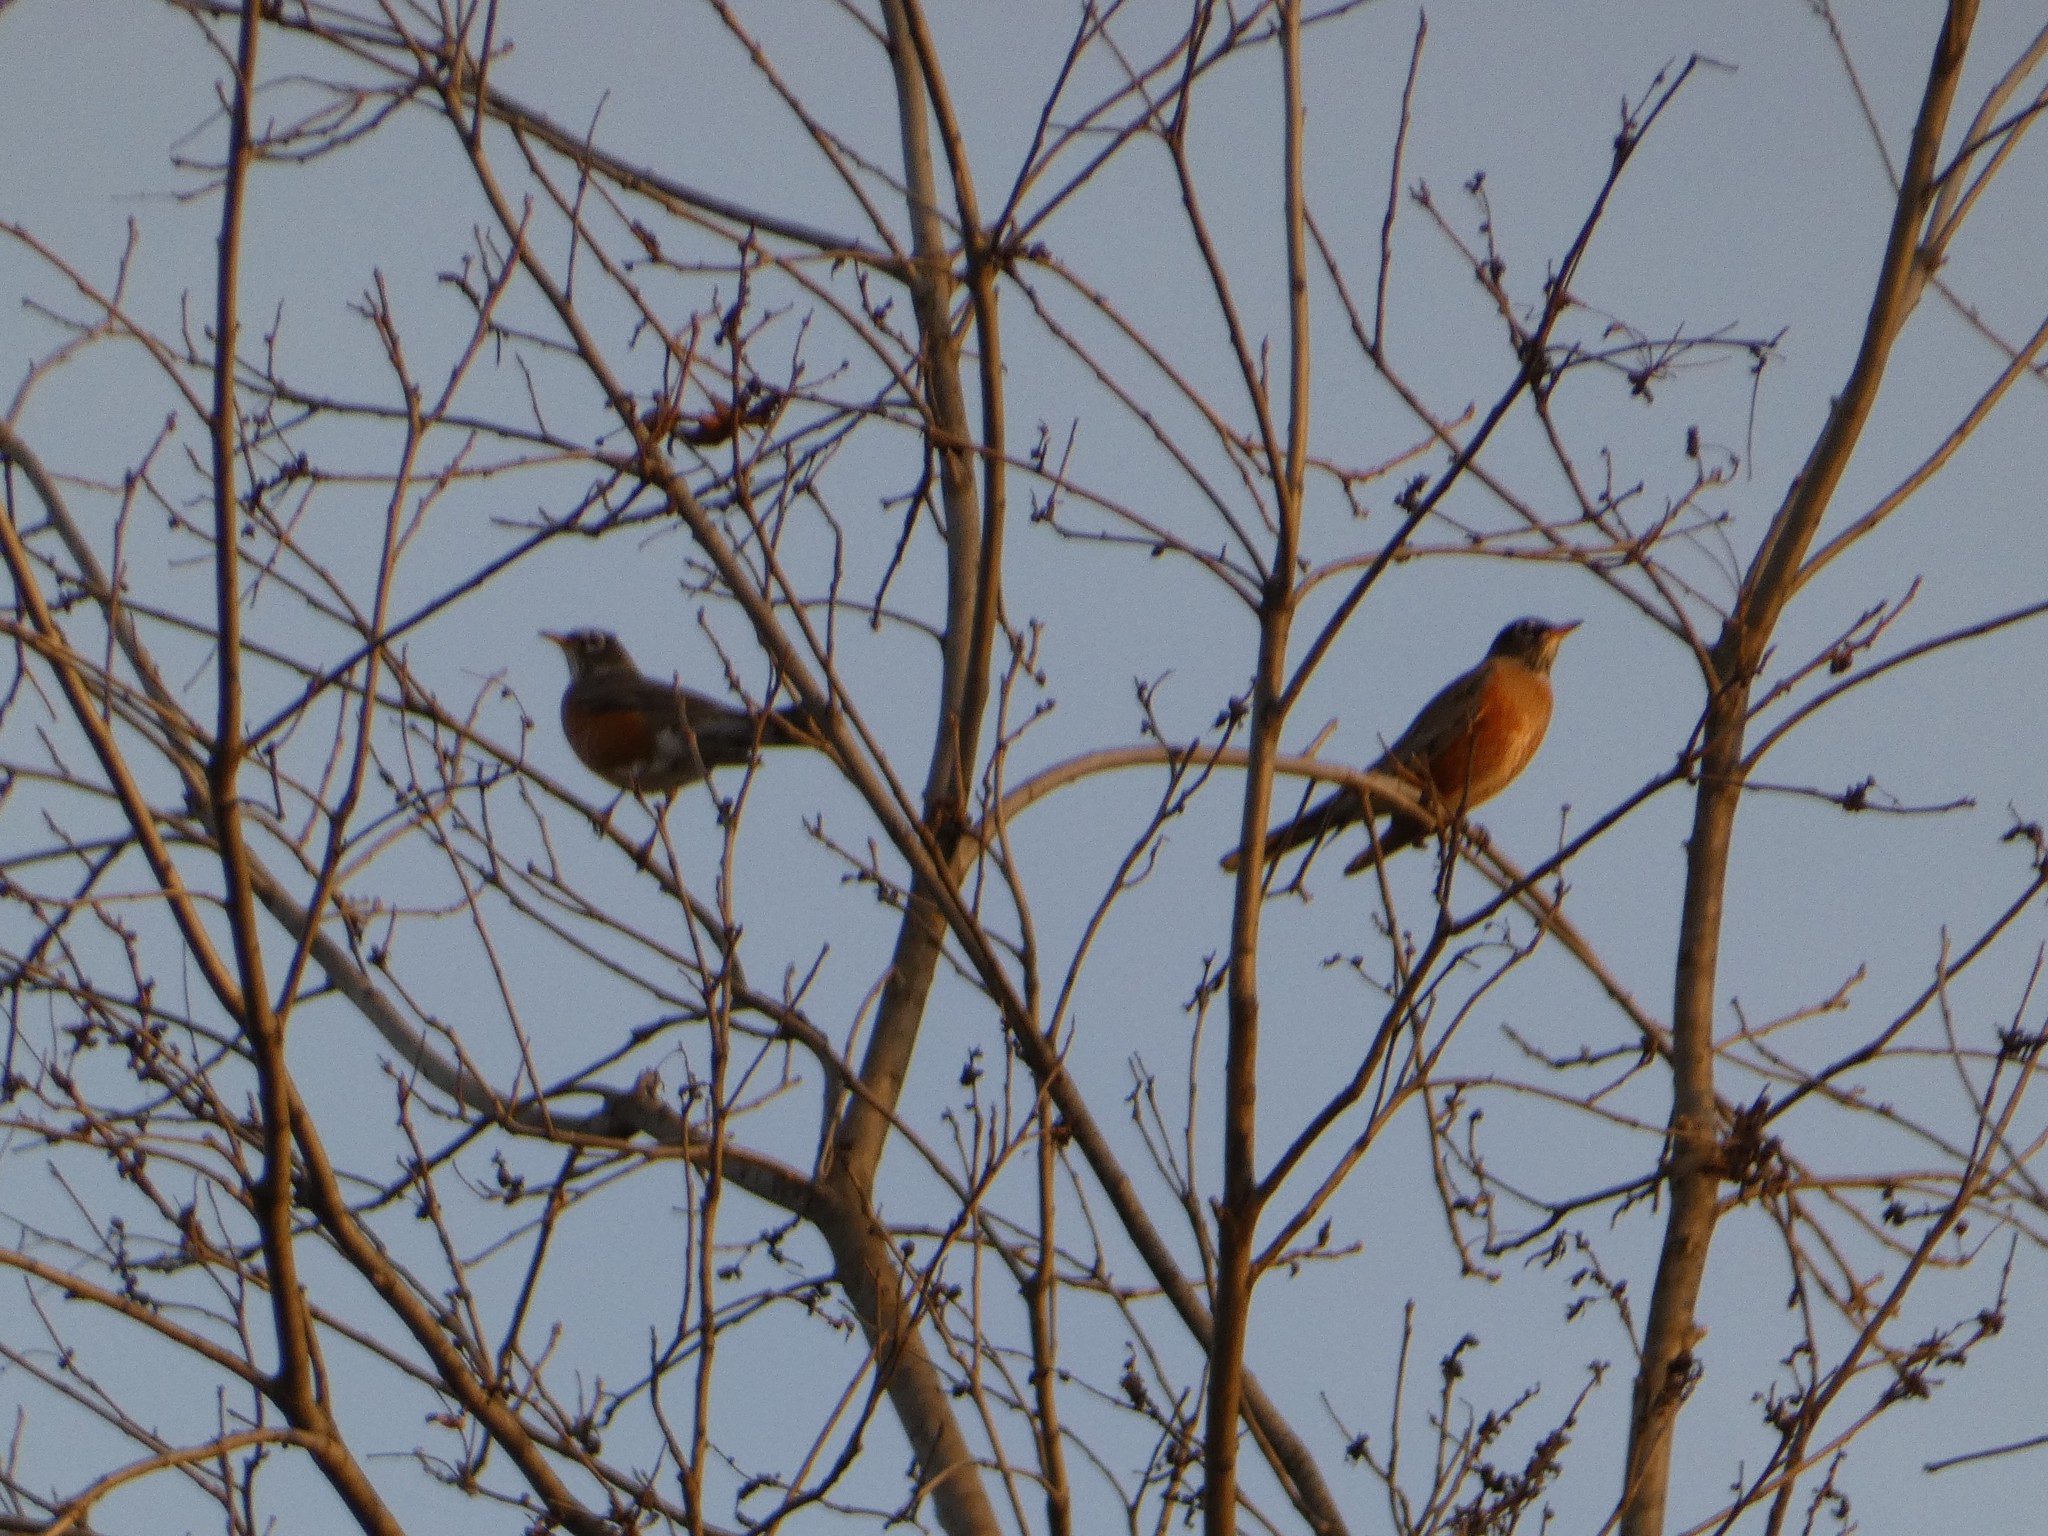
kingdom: Animalia
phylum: Chordata
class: Aves
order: Passeriformes
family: Turdidae
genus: Turdus
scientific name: Turdus migratorius
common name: American robin
